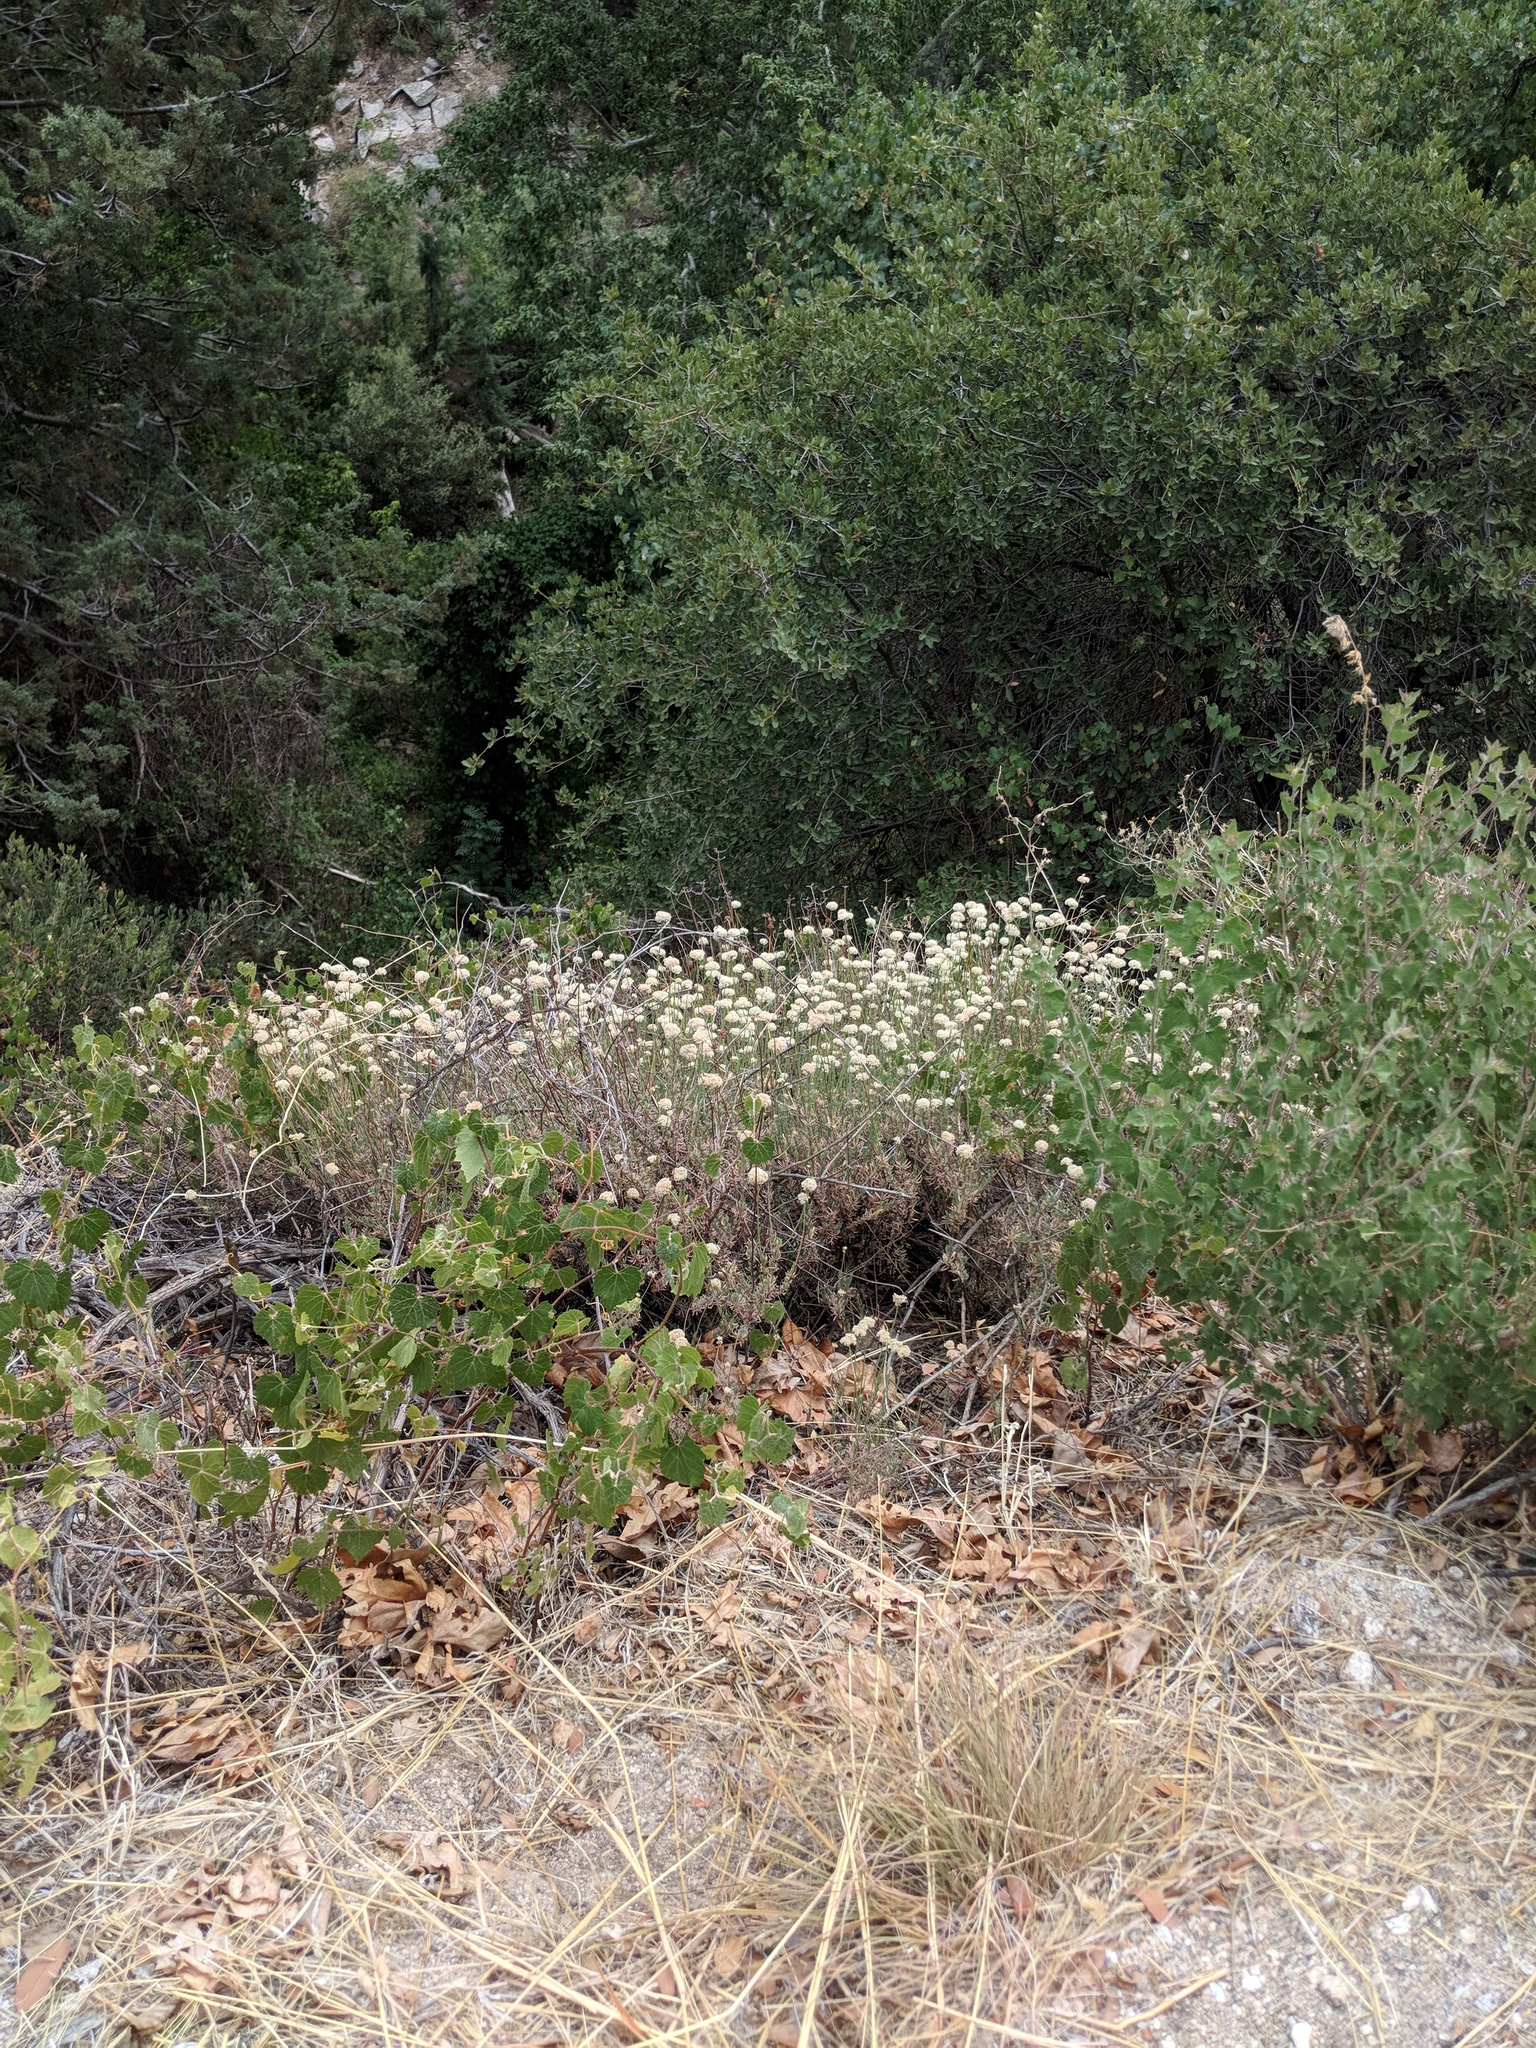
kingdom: Plantae
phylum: Tracheophyta
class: Magnoliopsida
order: Caryophyllales
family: Polygonaceae
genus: Eriogonum
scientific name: Eriogonum fasciculatum
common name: California wild buckwheat
